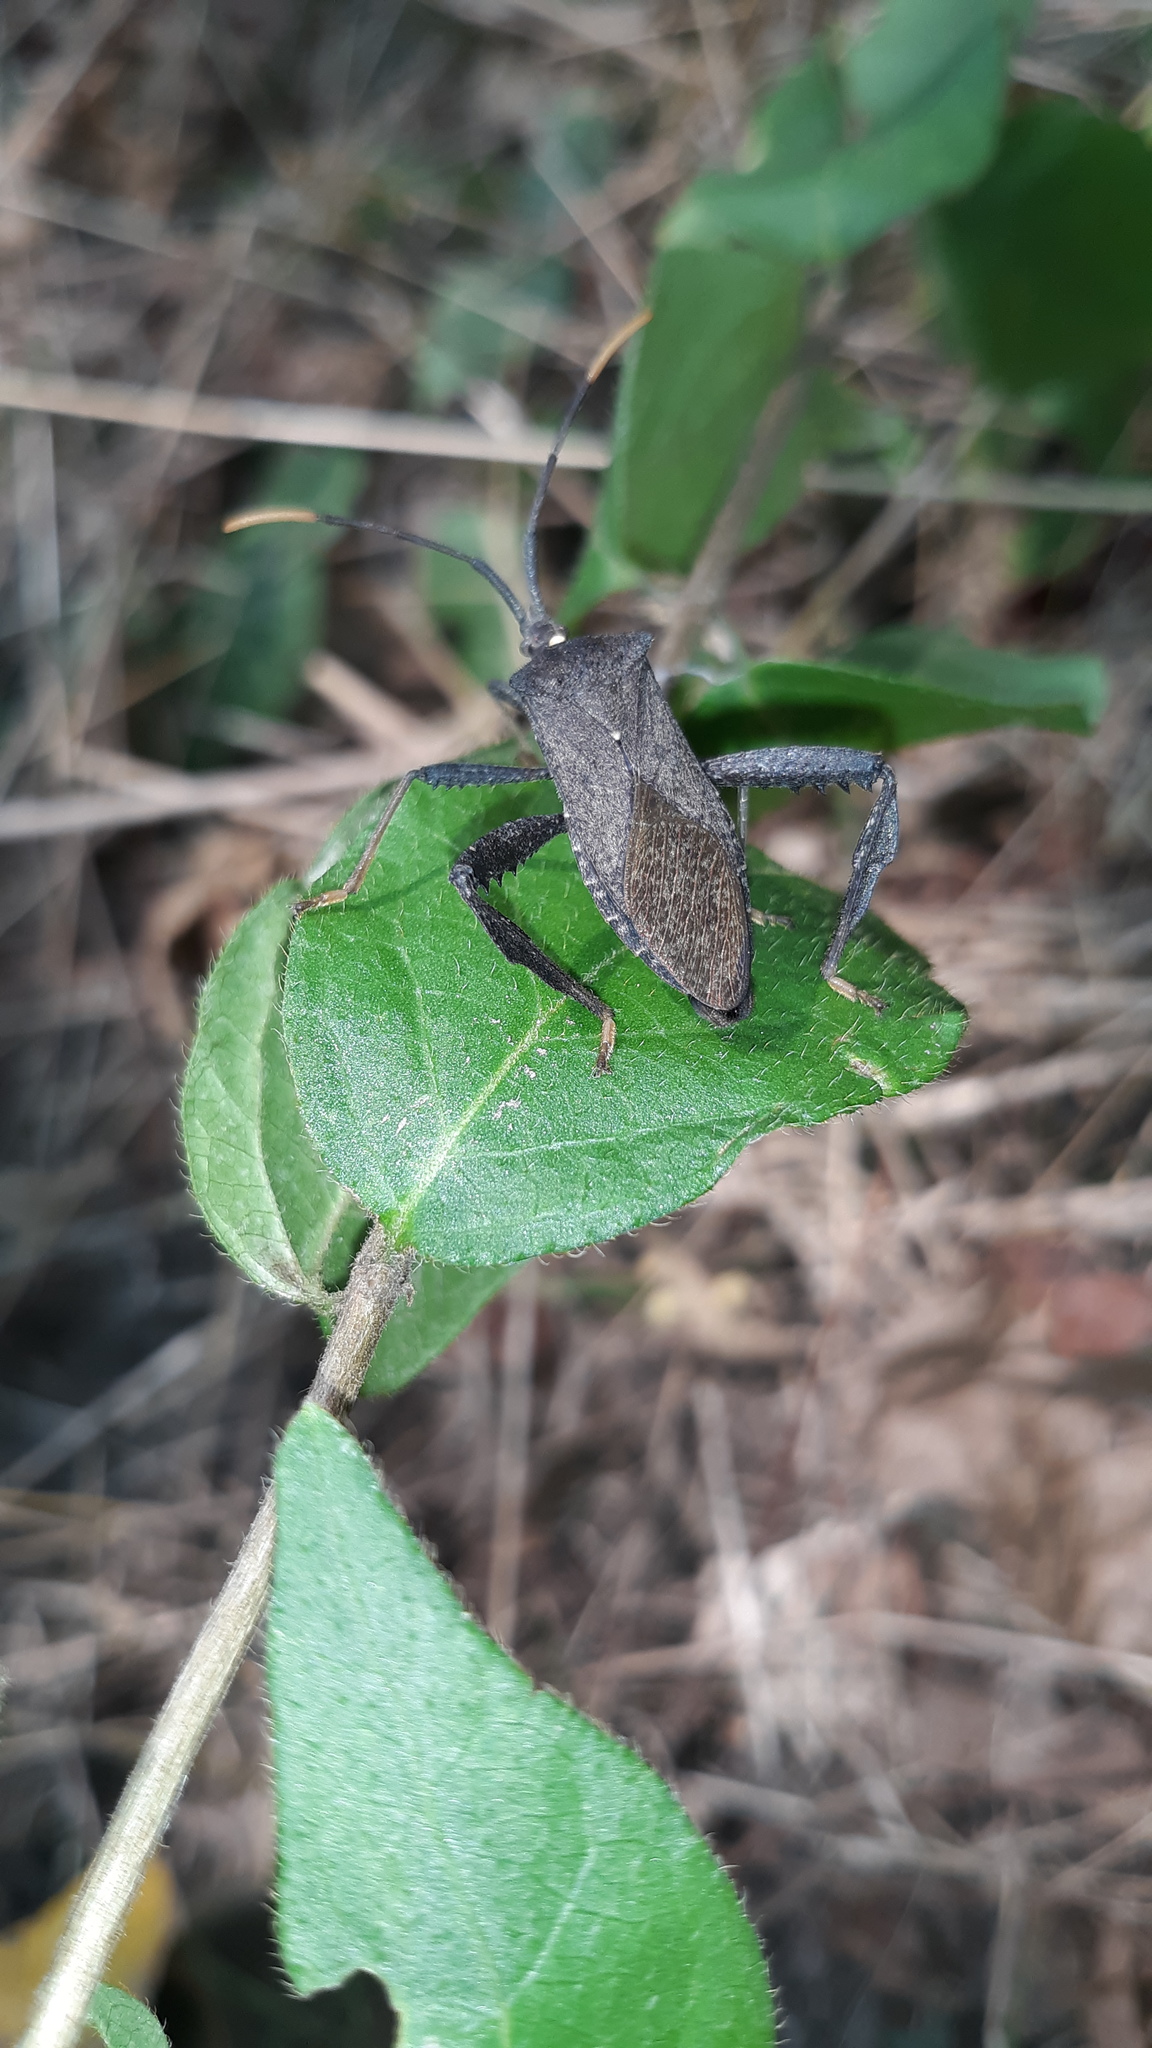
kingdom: Animalia
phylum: Arthropoda
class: Insecta
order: Hemiptera
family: Coreidae
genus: Acanthocephala
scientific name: Acanthocephala terminalis
